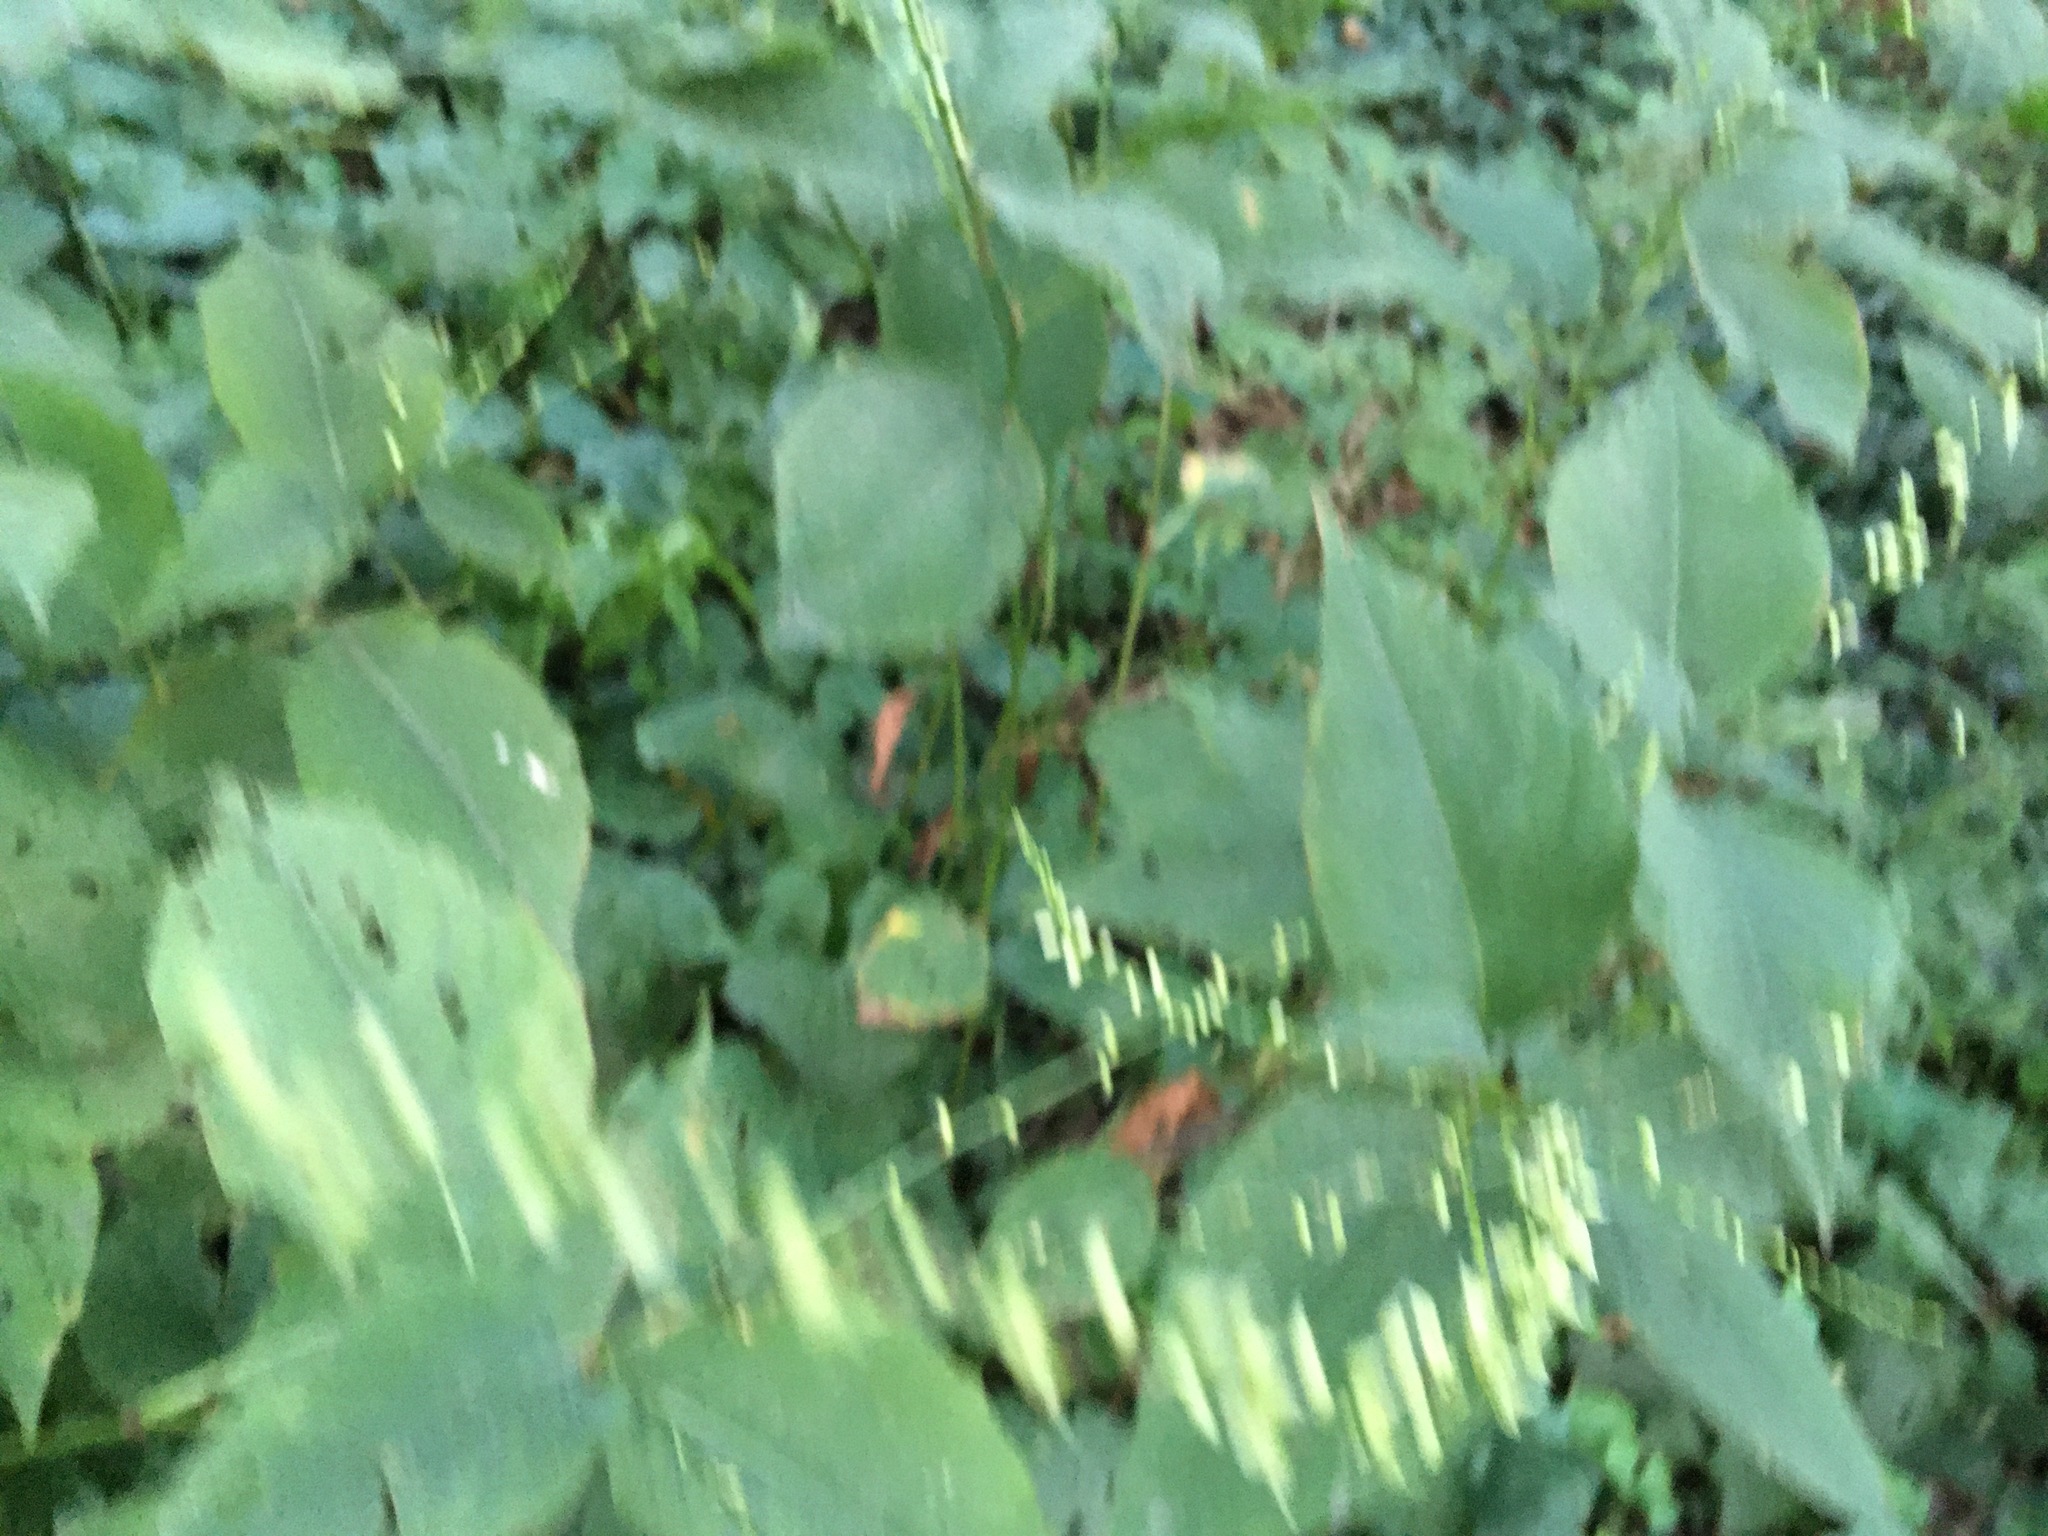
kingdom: Plantae
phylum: Tracheophyta
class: Magnoliopsida
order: Caryophyllales
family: Polygonaceae
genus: Persicaria
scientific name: Persicaria virginiana
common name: Jumpseed
